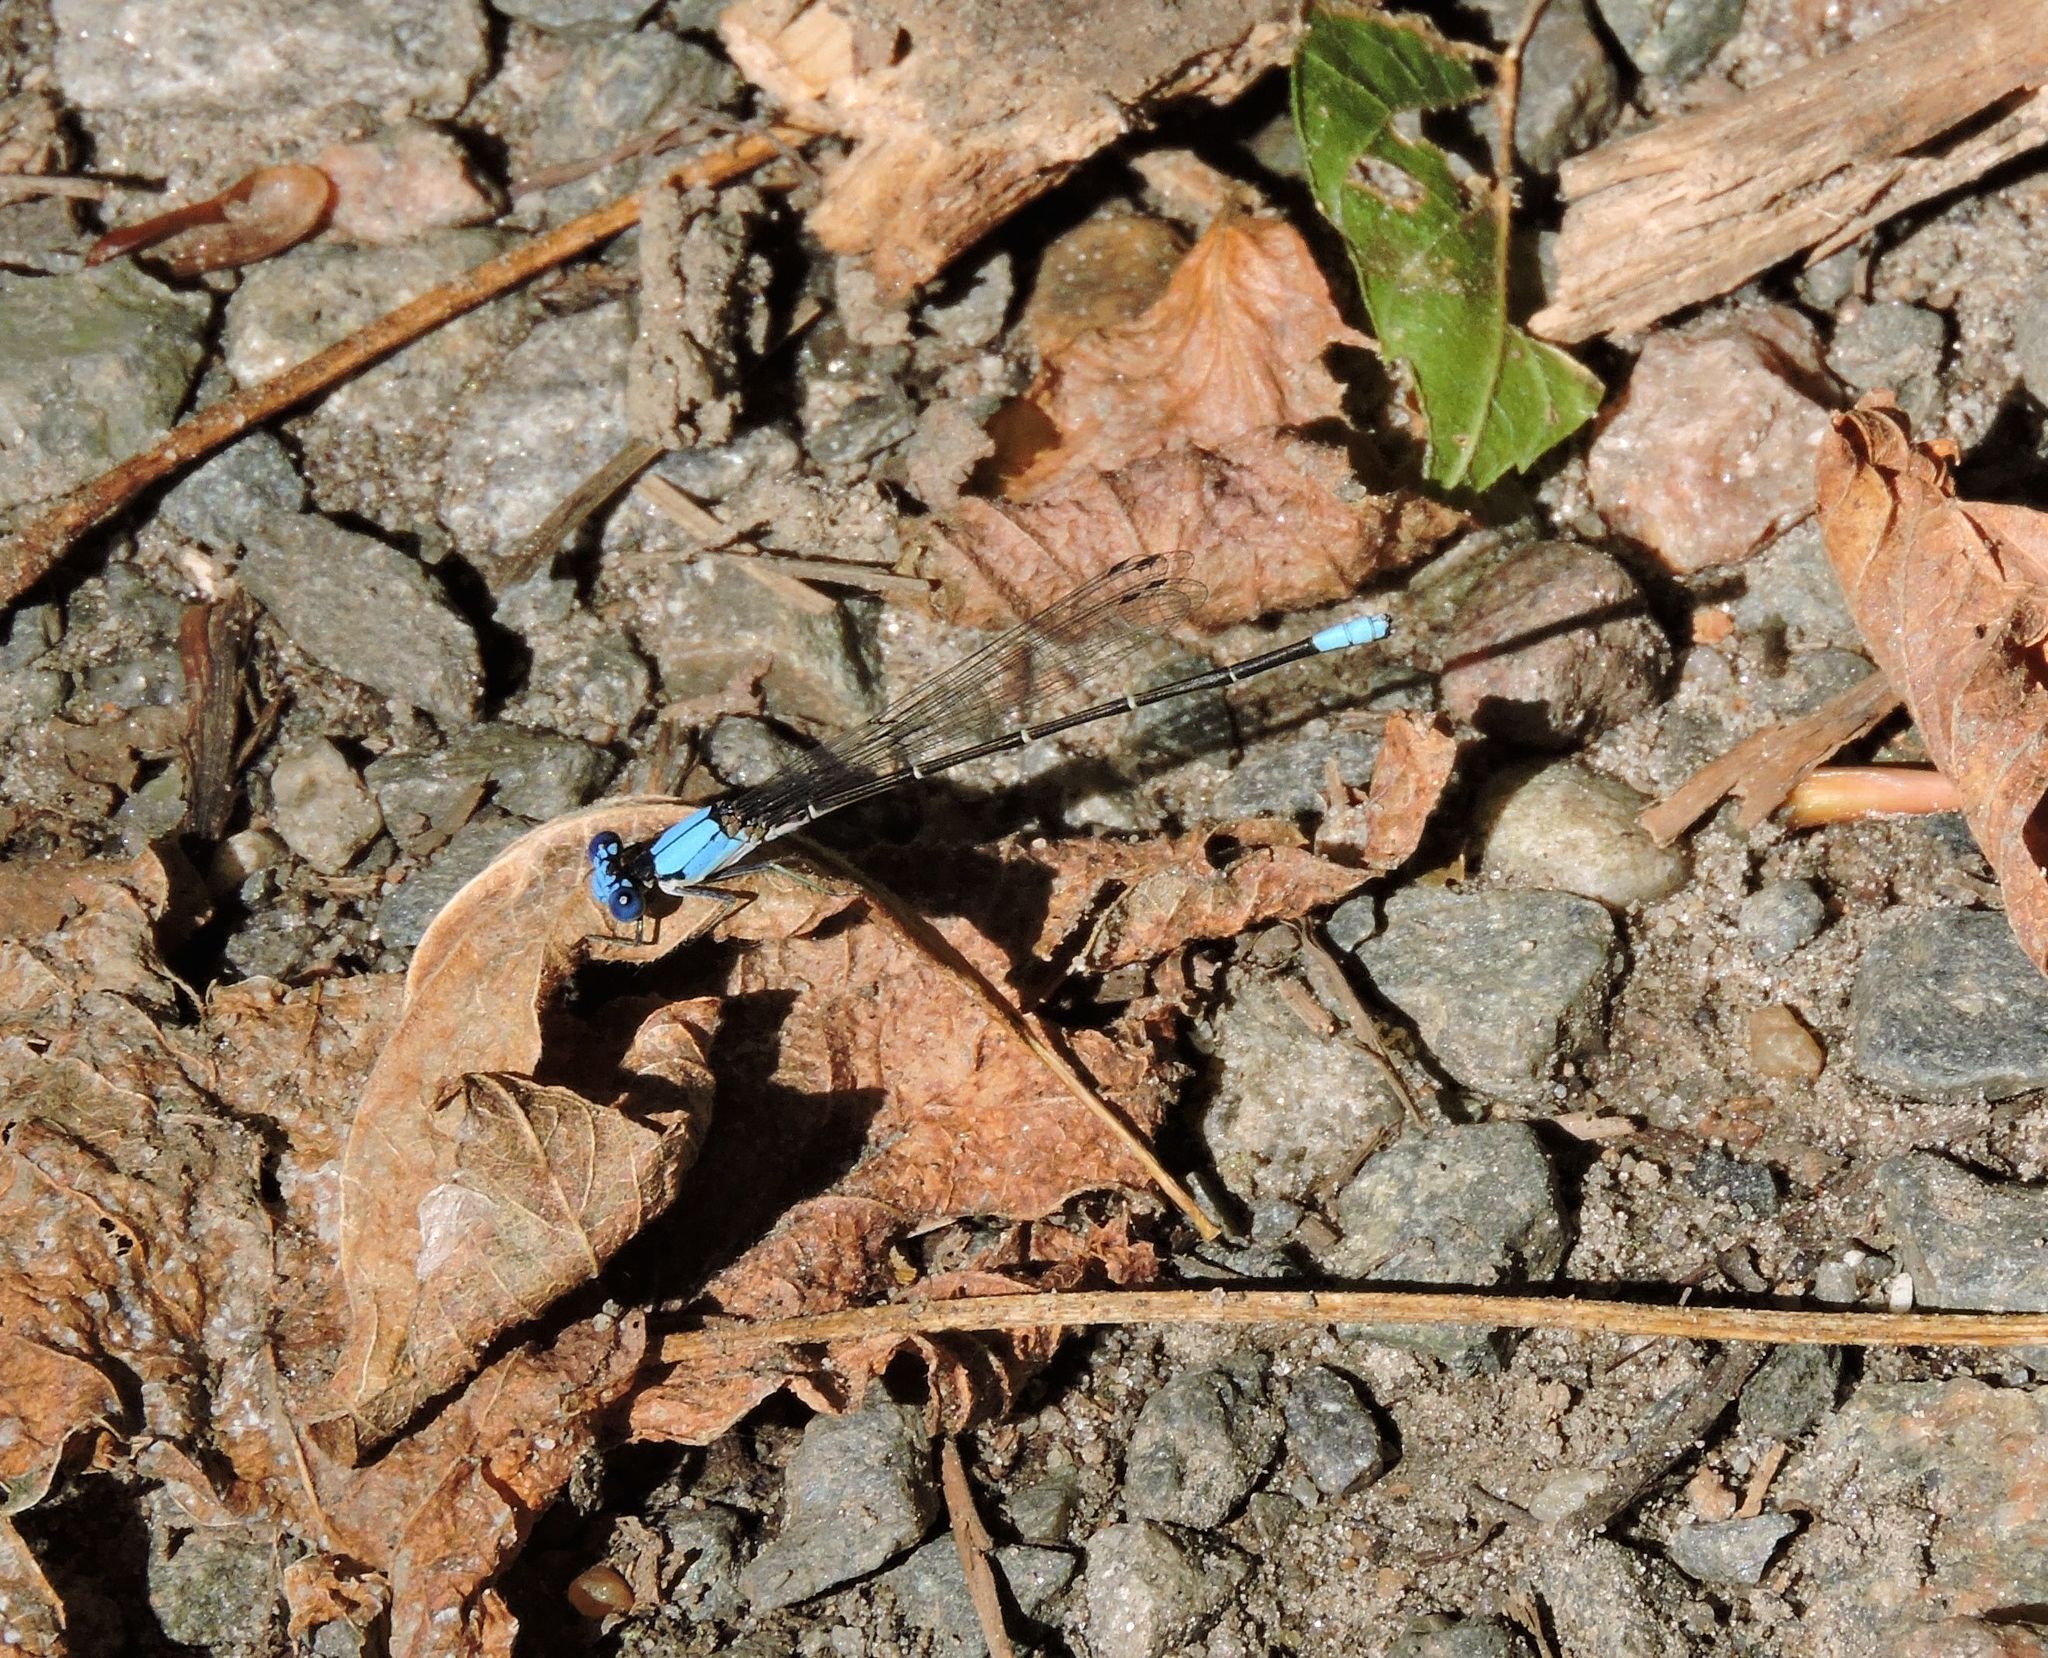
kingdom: Animalia
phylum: Arthropoda
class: Insecta
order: Odonata
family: Coenagrionidae
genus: Argia
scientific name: Argia apicalis
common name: Blue-fronted dancer
